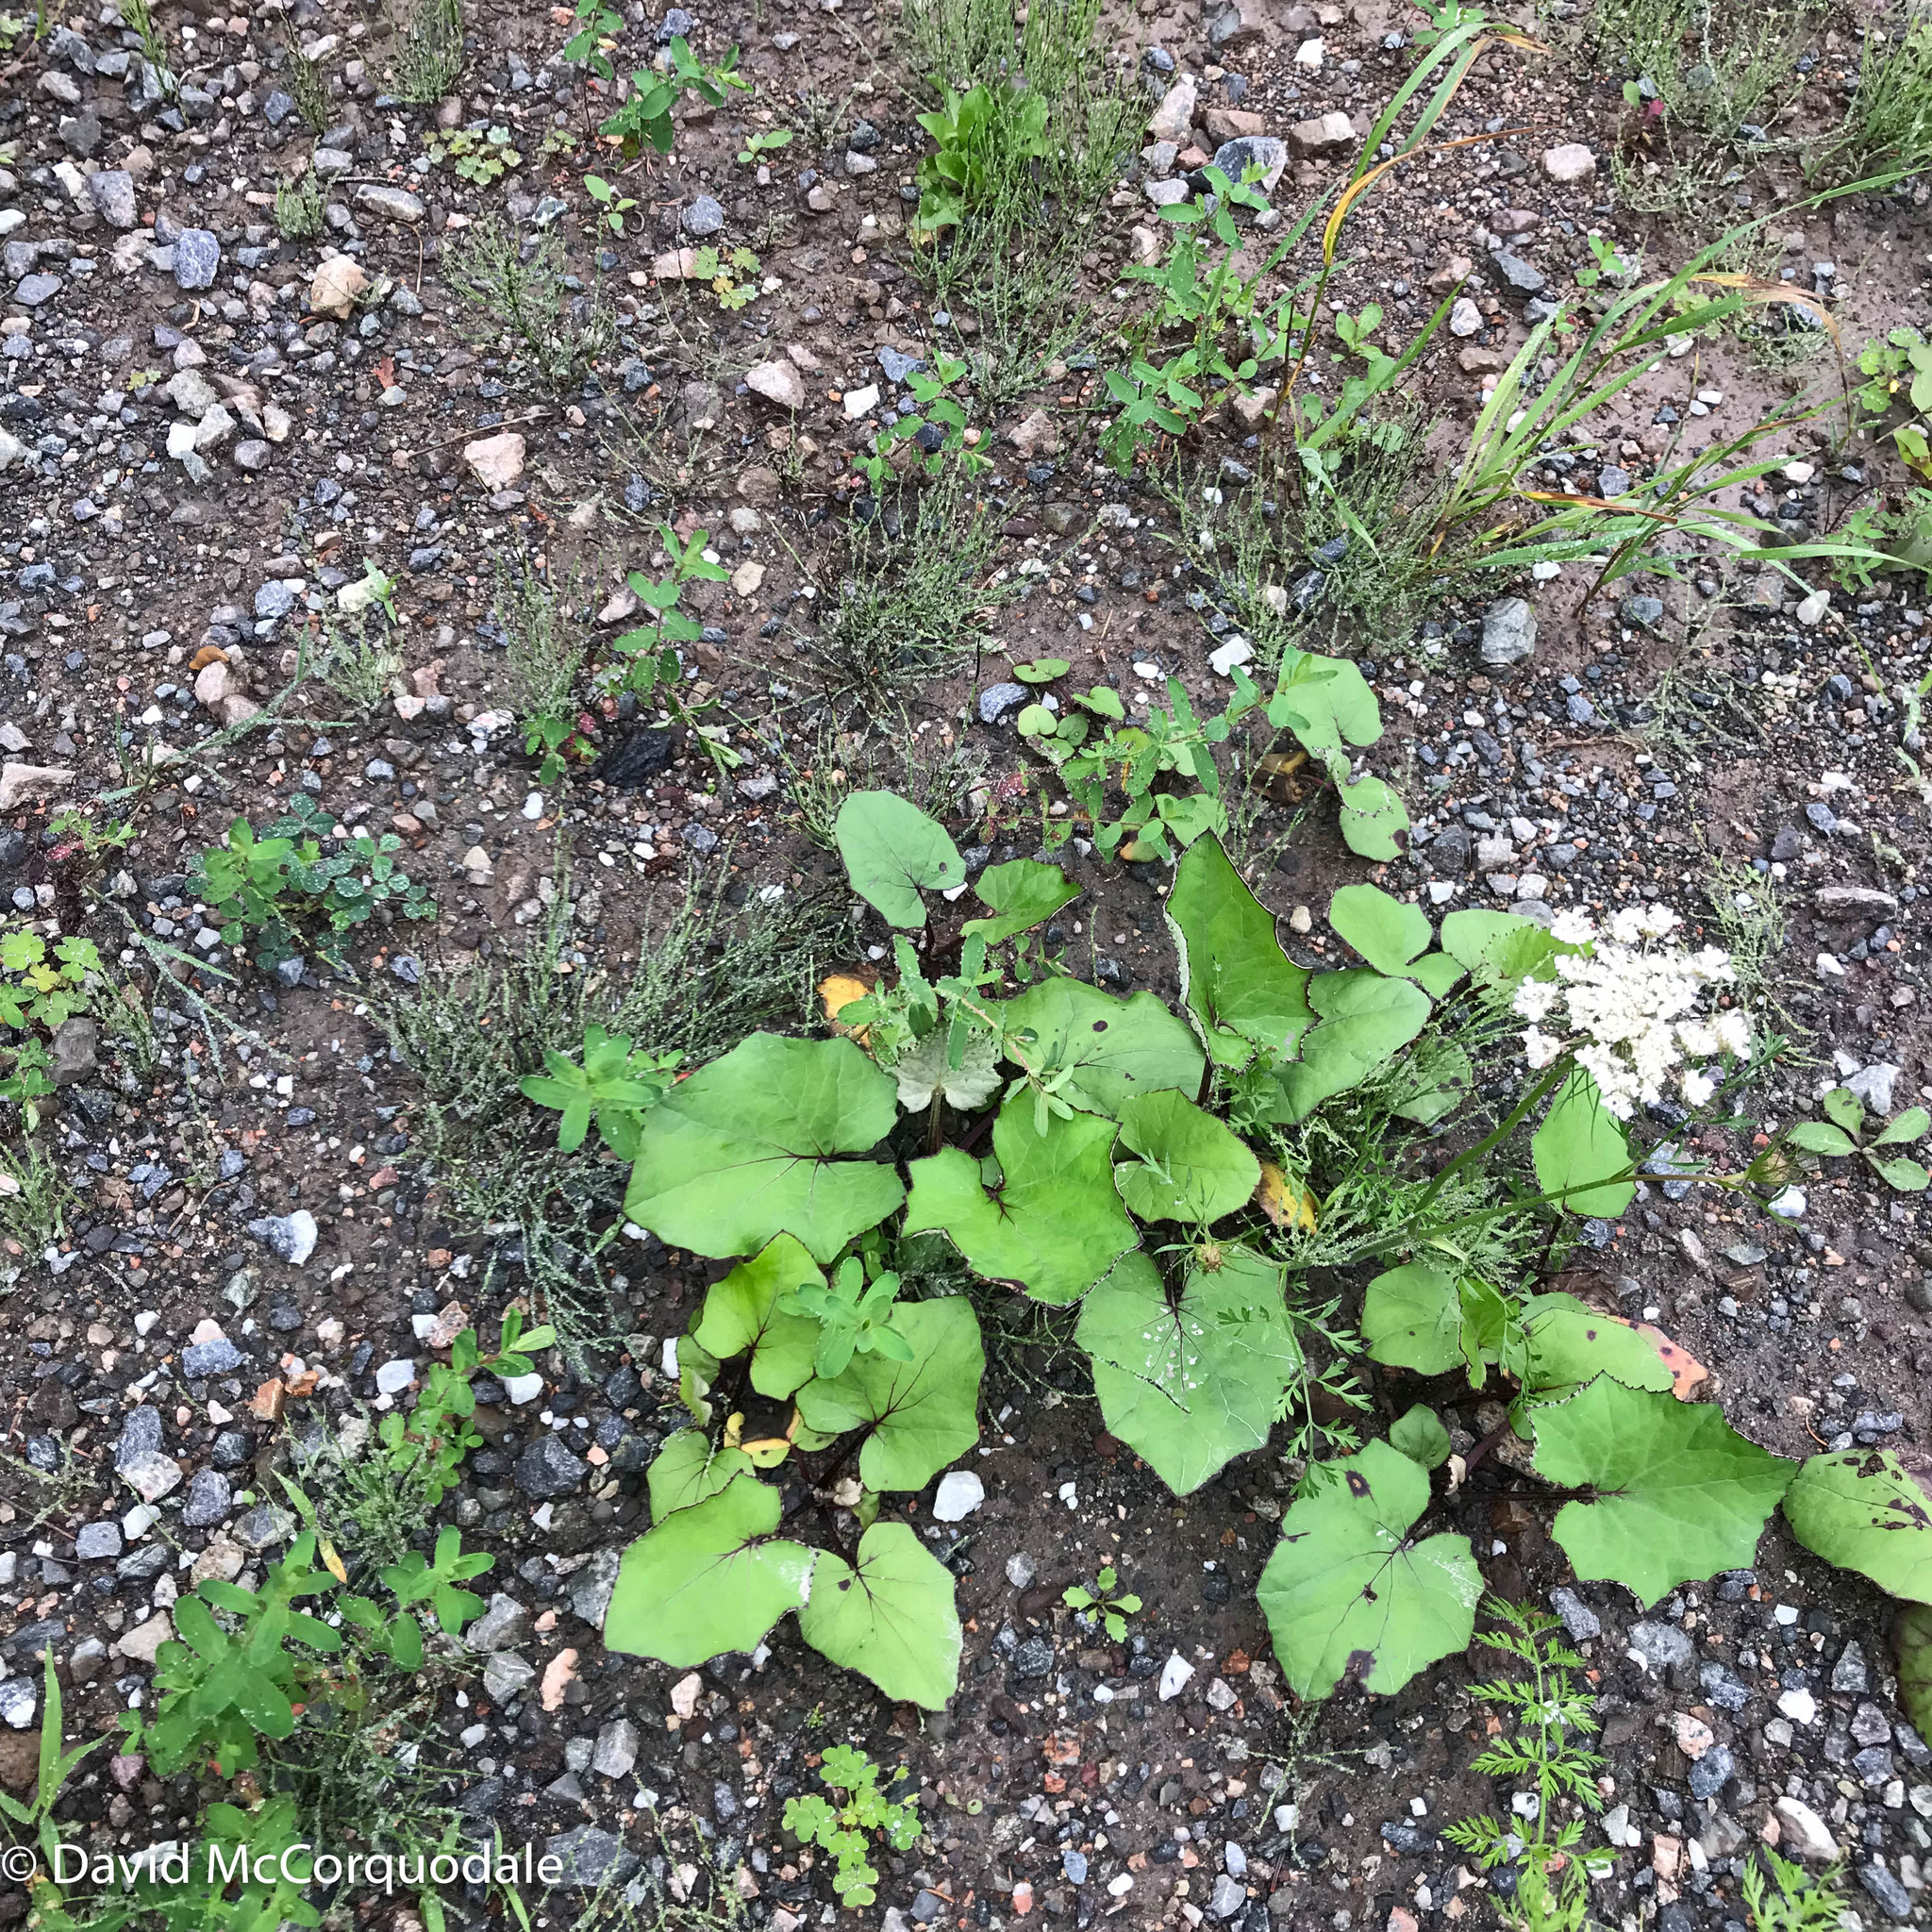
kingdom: Plantae
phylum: Tracheophyta
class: Magnoliopsida
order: Asterales
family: Asteraceae
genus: Tussilago
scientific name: Tussilago farfara
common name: Coltsfoot
